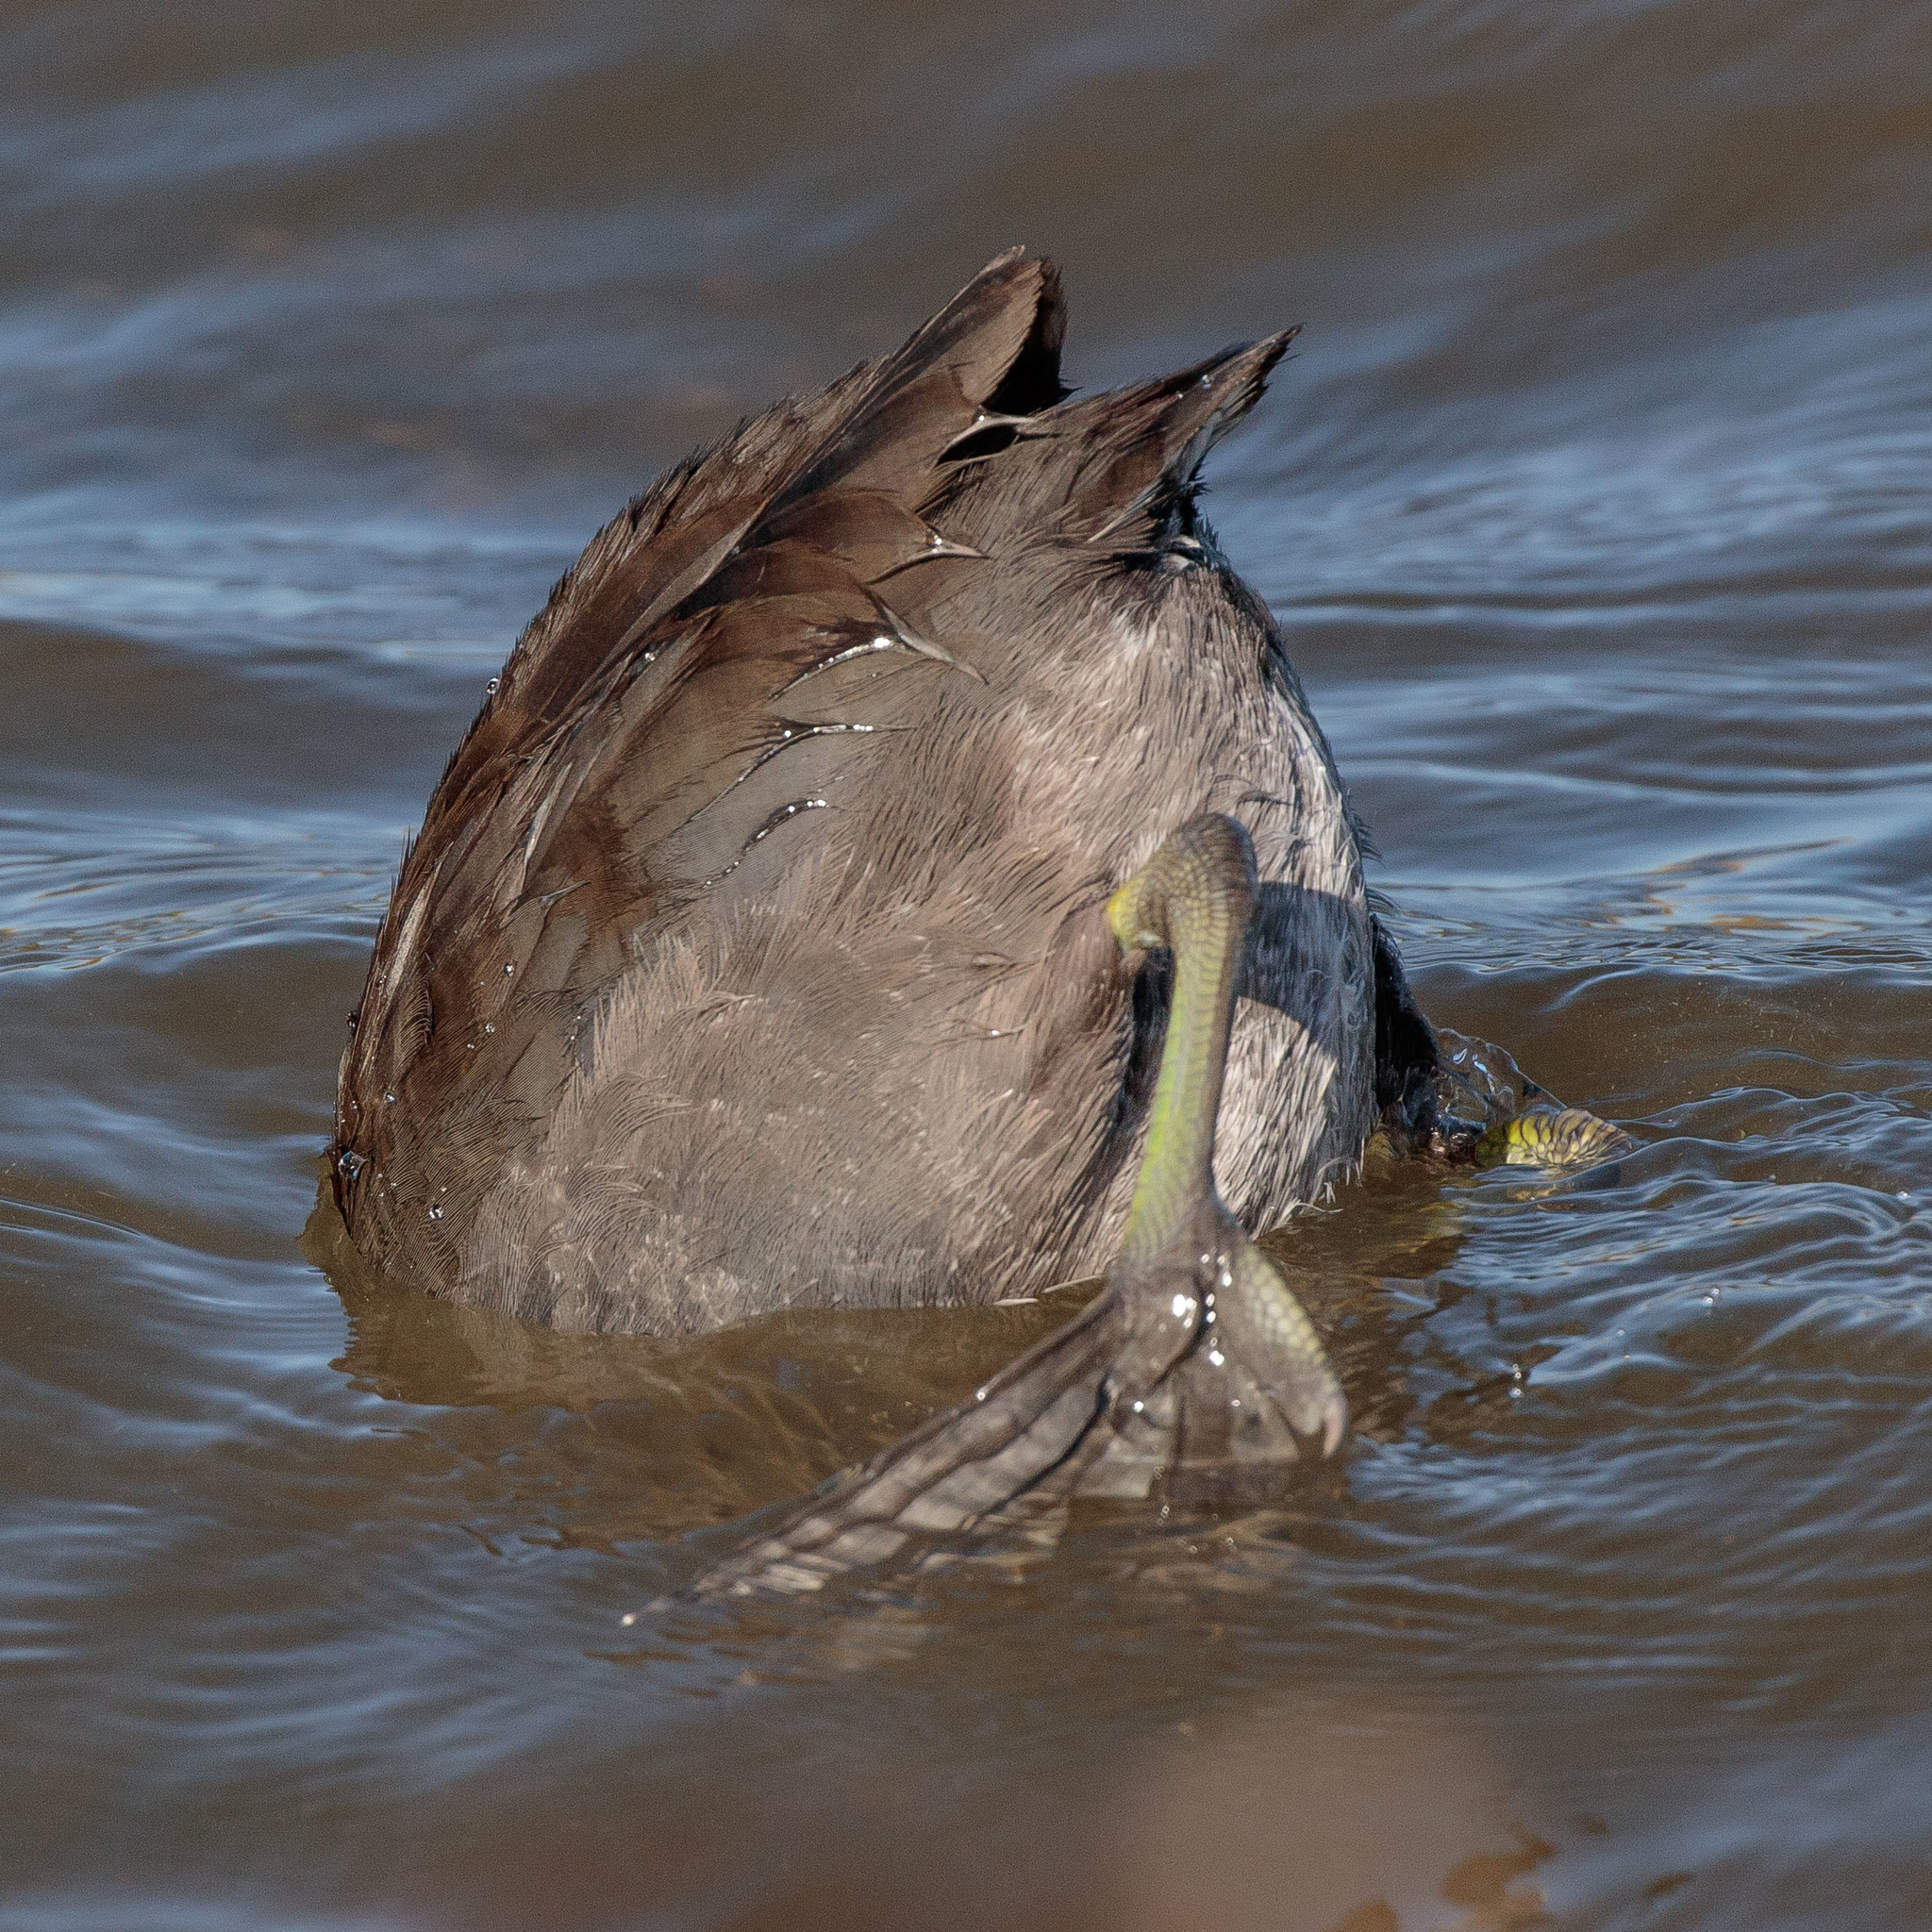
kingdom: Animalia
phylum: Chordata
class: Aves
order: Gruiformes
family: Rallidae
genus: Fulica
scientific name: Fulica americana
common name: American coot
